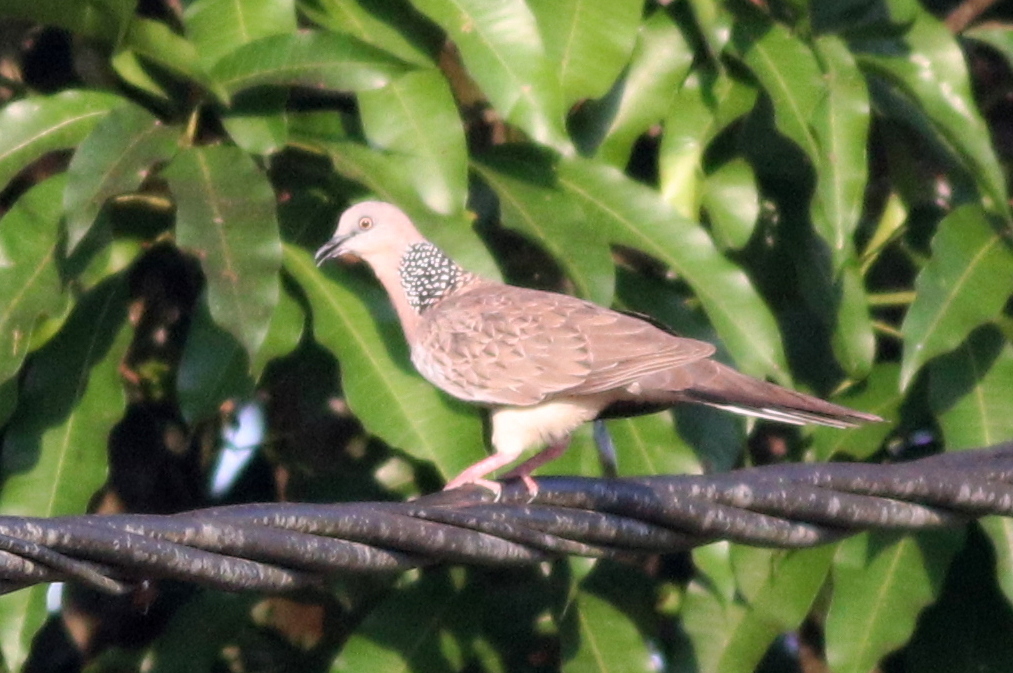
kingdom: Animalia
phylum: Chordata
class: Aves
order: Columbiformes
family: Columbidae
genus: Spilopelia
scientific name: Spilopelia chinensis
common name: Spotted dove
